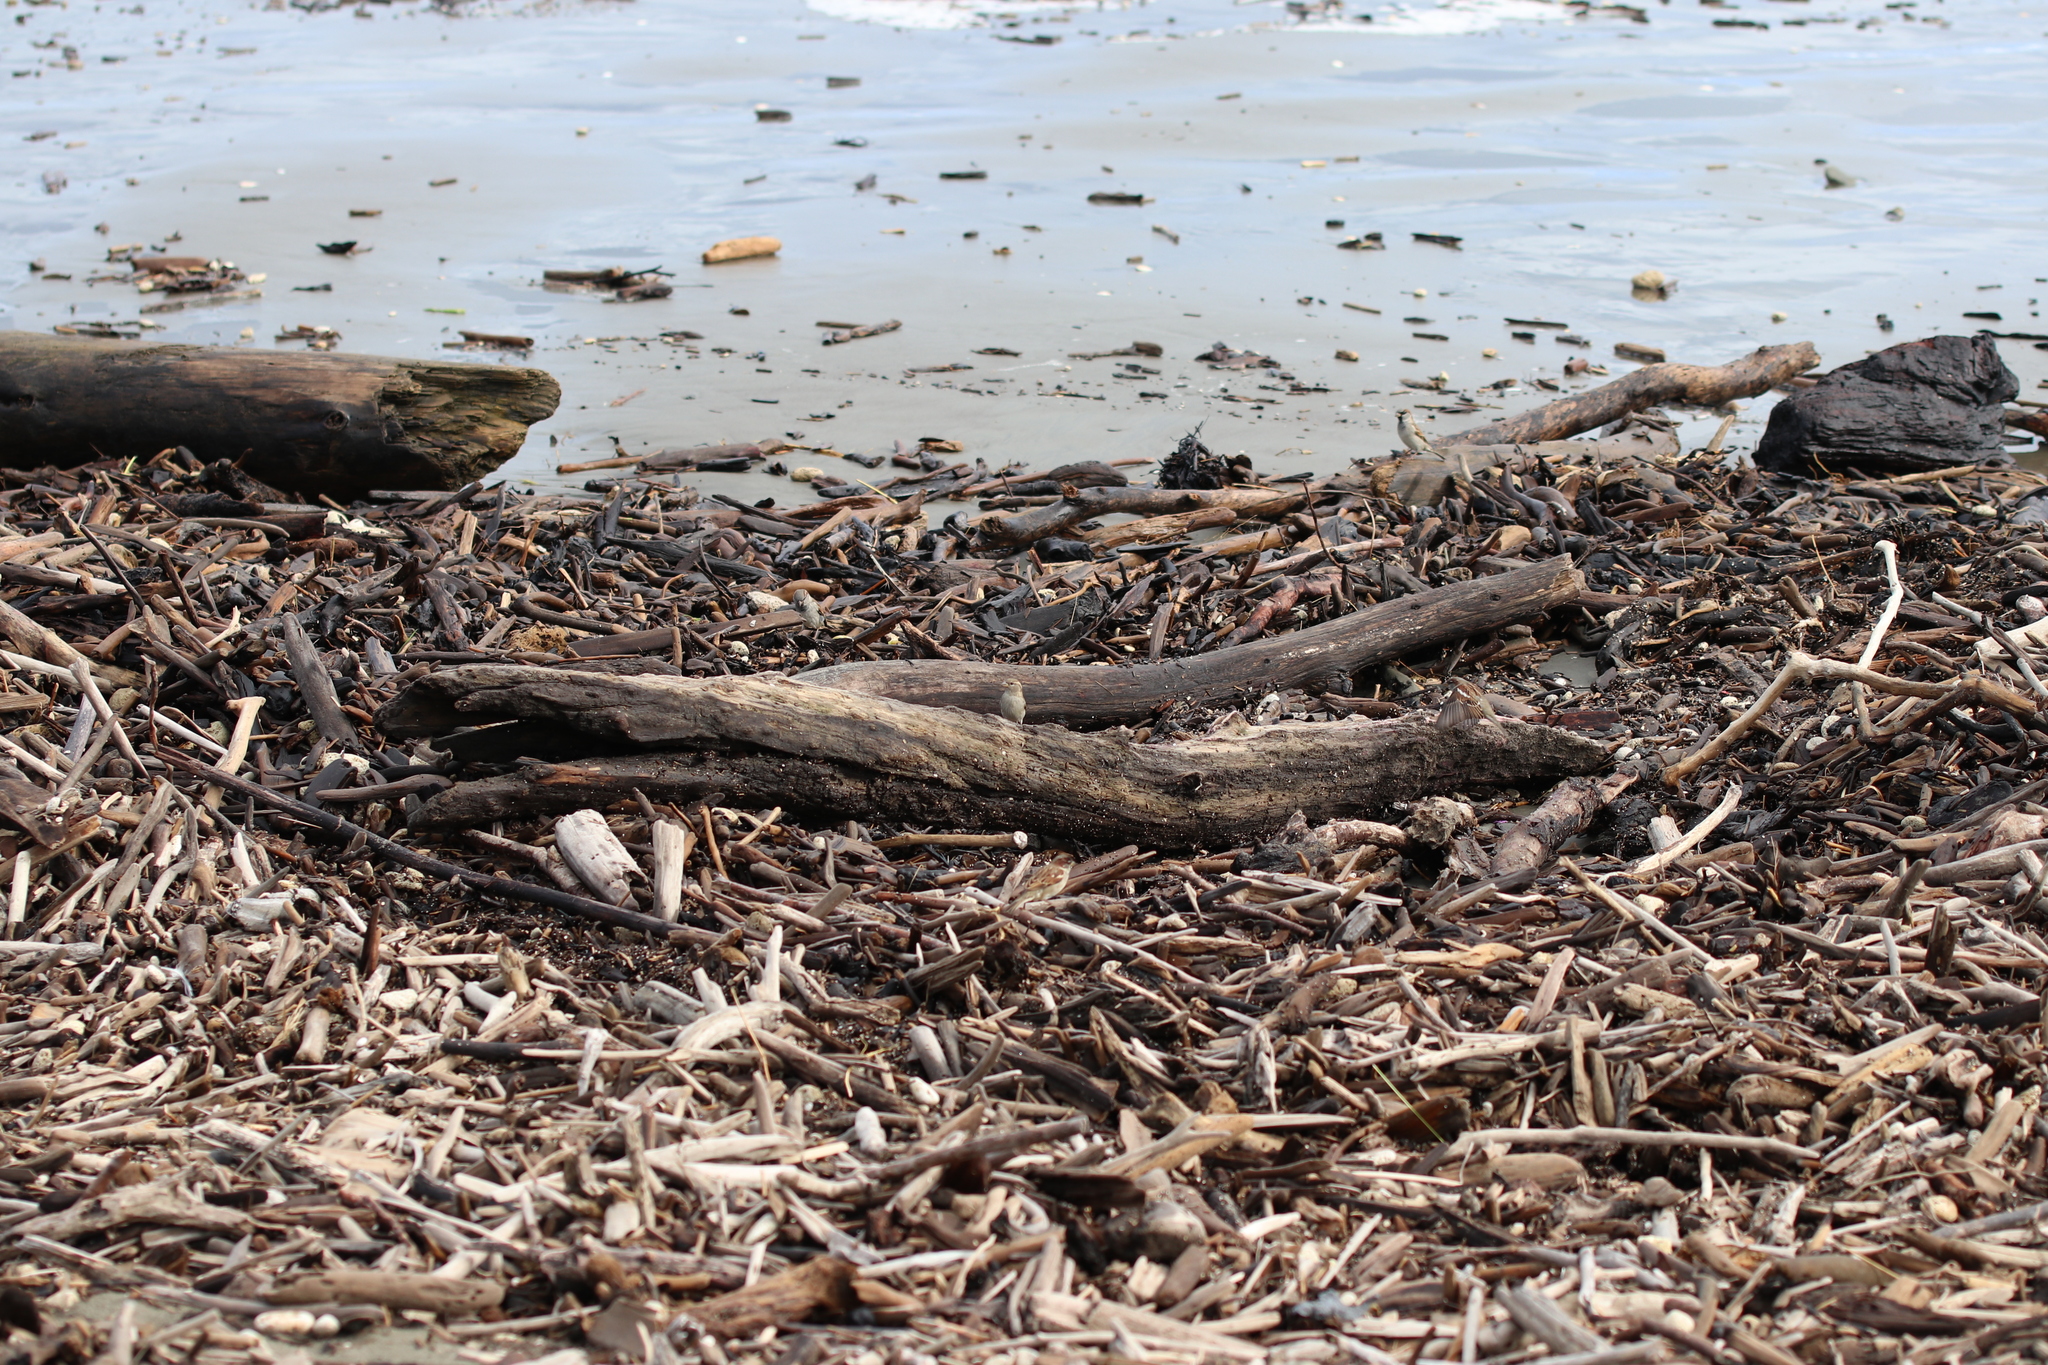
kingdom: Animalia
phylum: Chordata
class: Aves
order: Passeriformes
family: Passeridae
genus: Passer
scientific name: Passer domesticus
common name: House sparrow
